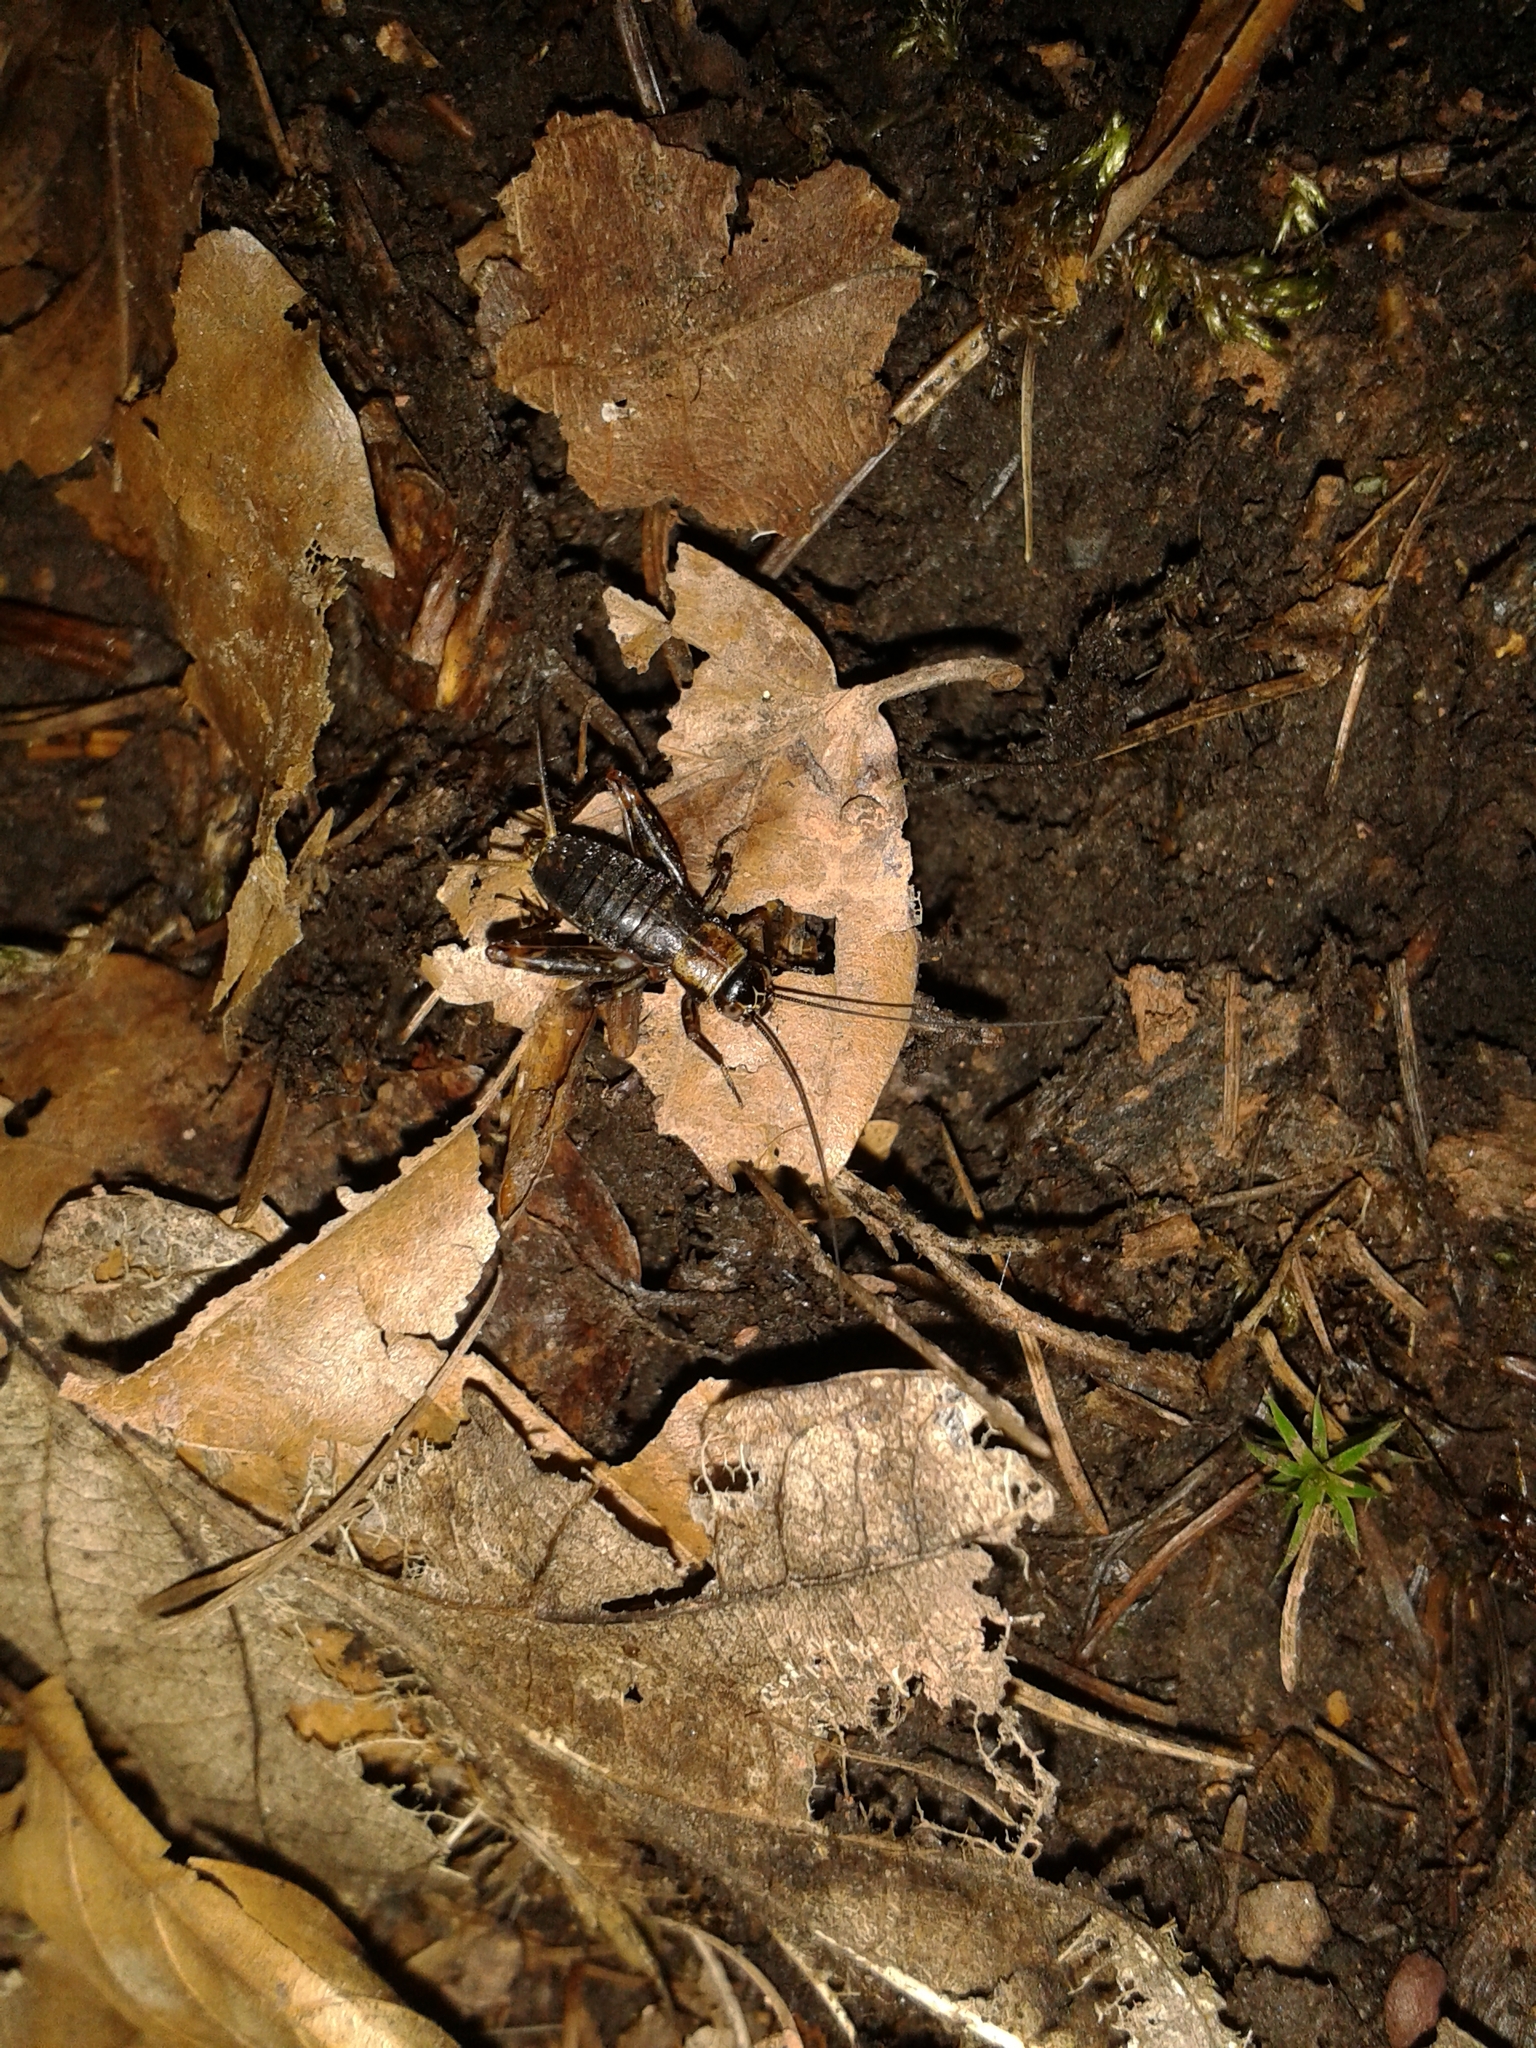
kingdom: Animalia
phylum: Arthropoda
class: Insecta
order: Orthoptera
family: Trigonidiidae
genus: Nemobius
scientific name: Nemobius sylvestris
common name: Wood-cricket
